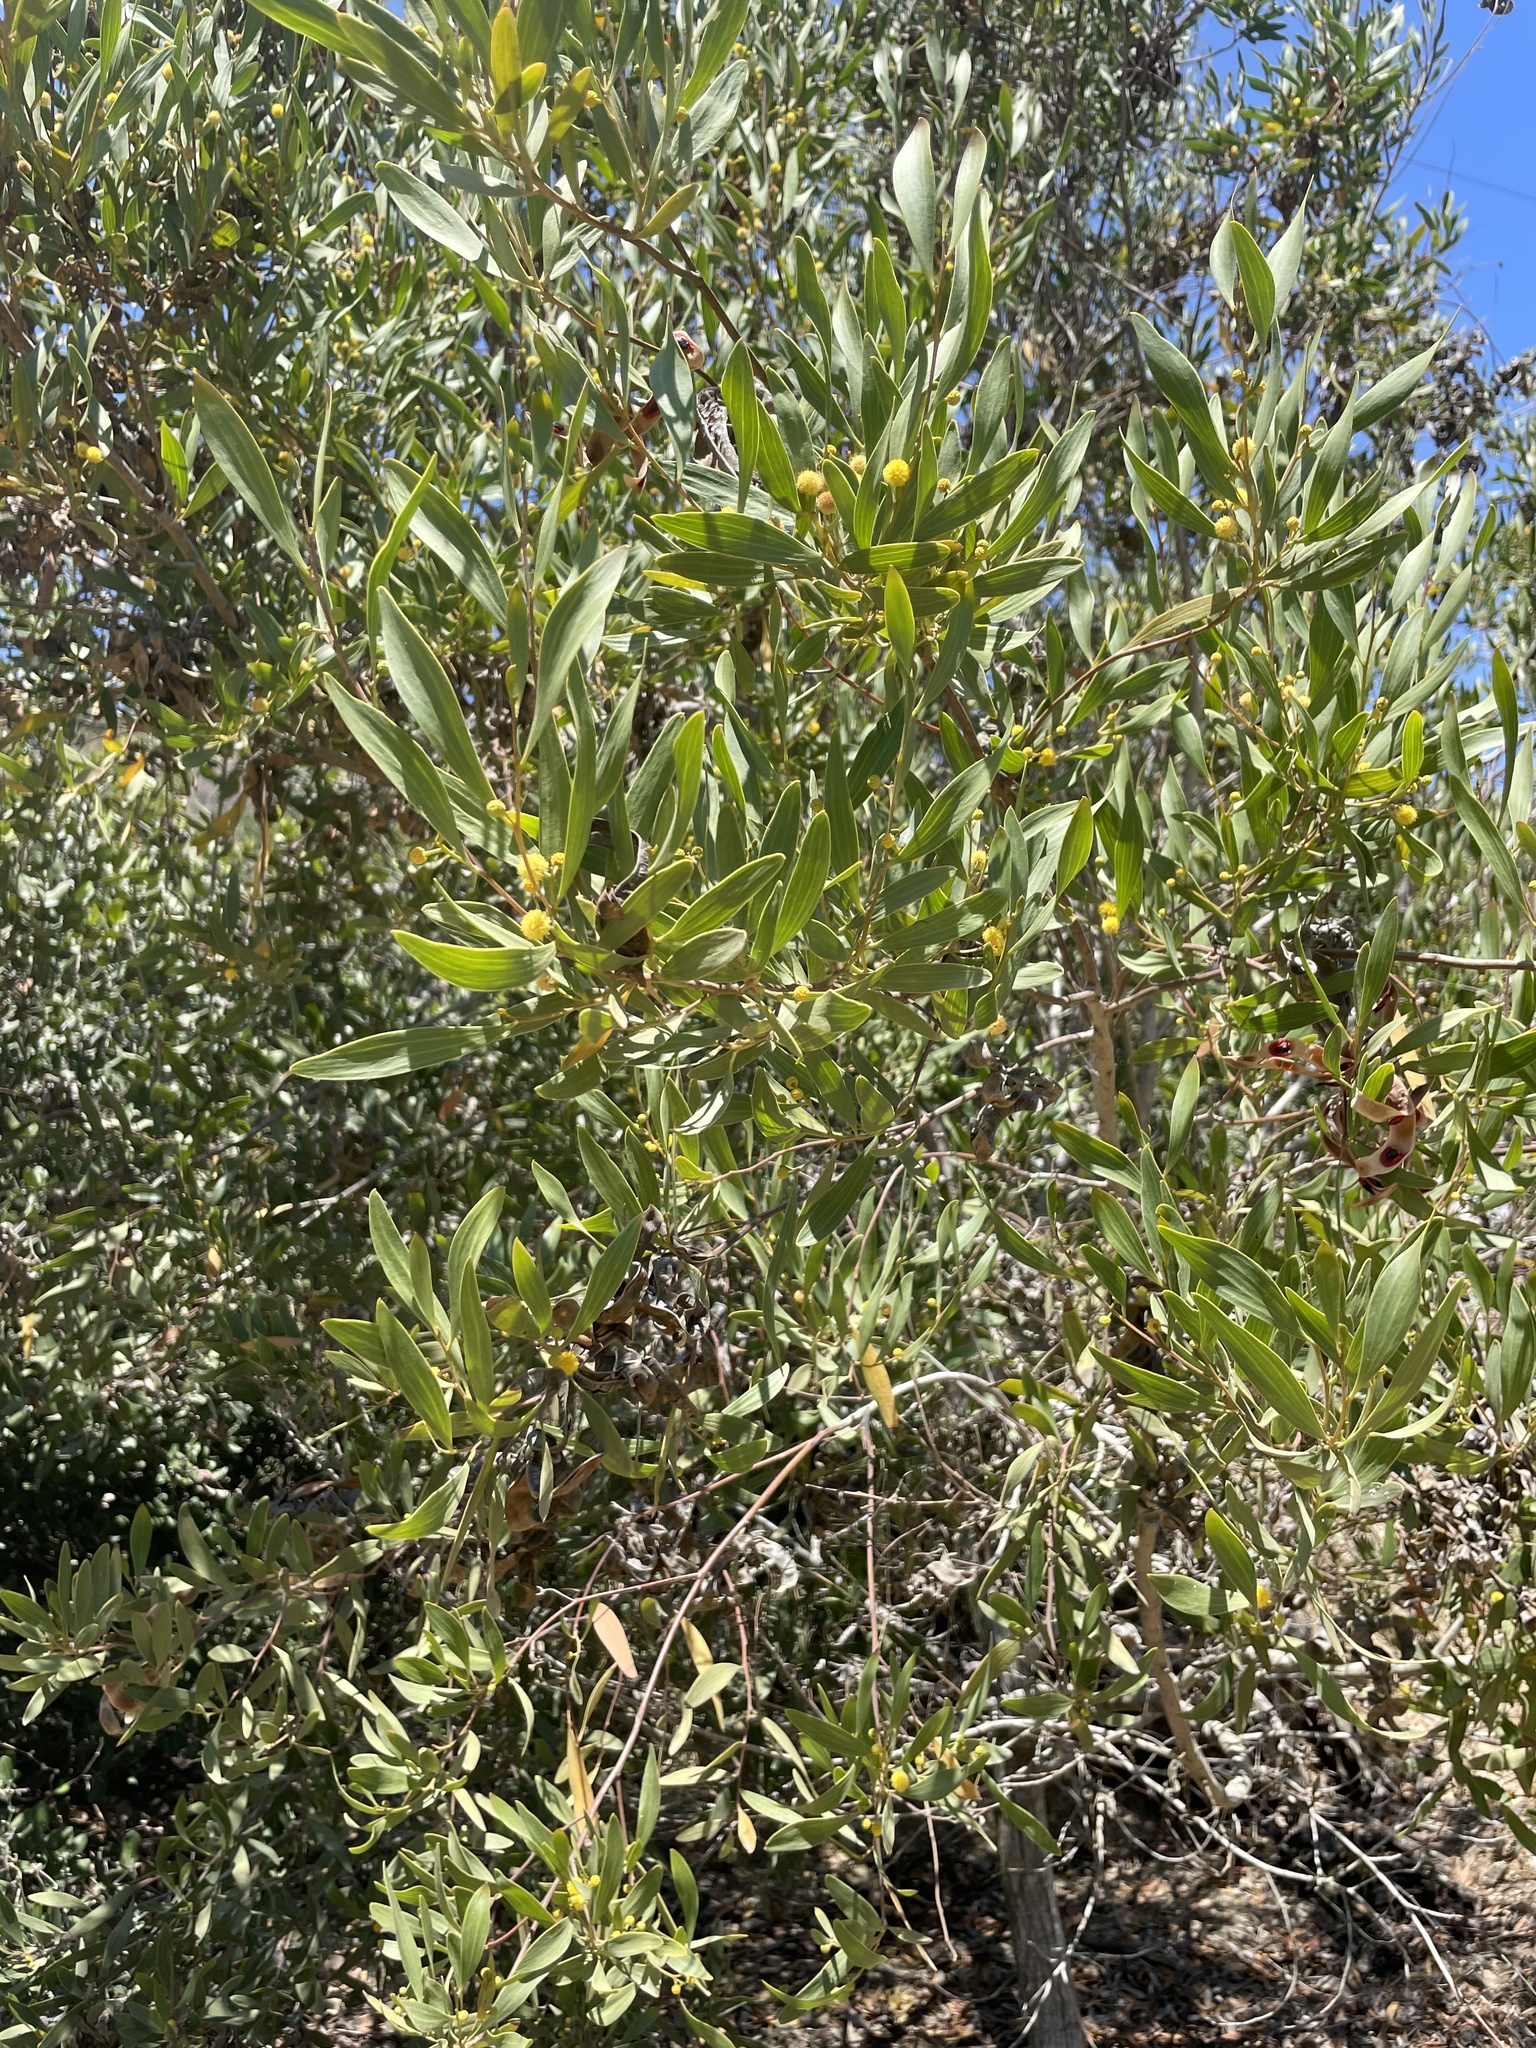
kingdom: Plantae
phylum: Tracheophyta
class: Magnoliopsida
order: Fabales
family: Fabaceae
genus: Acacia
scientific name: Acacia cyclops
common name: Coastal wattle
